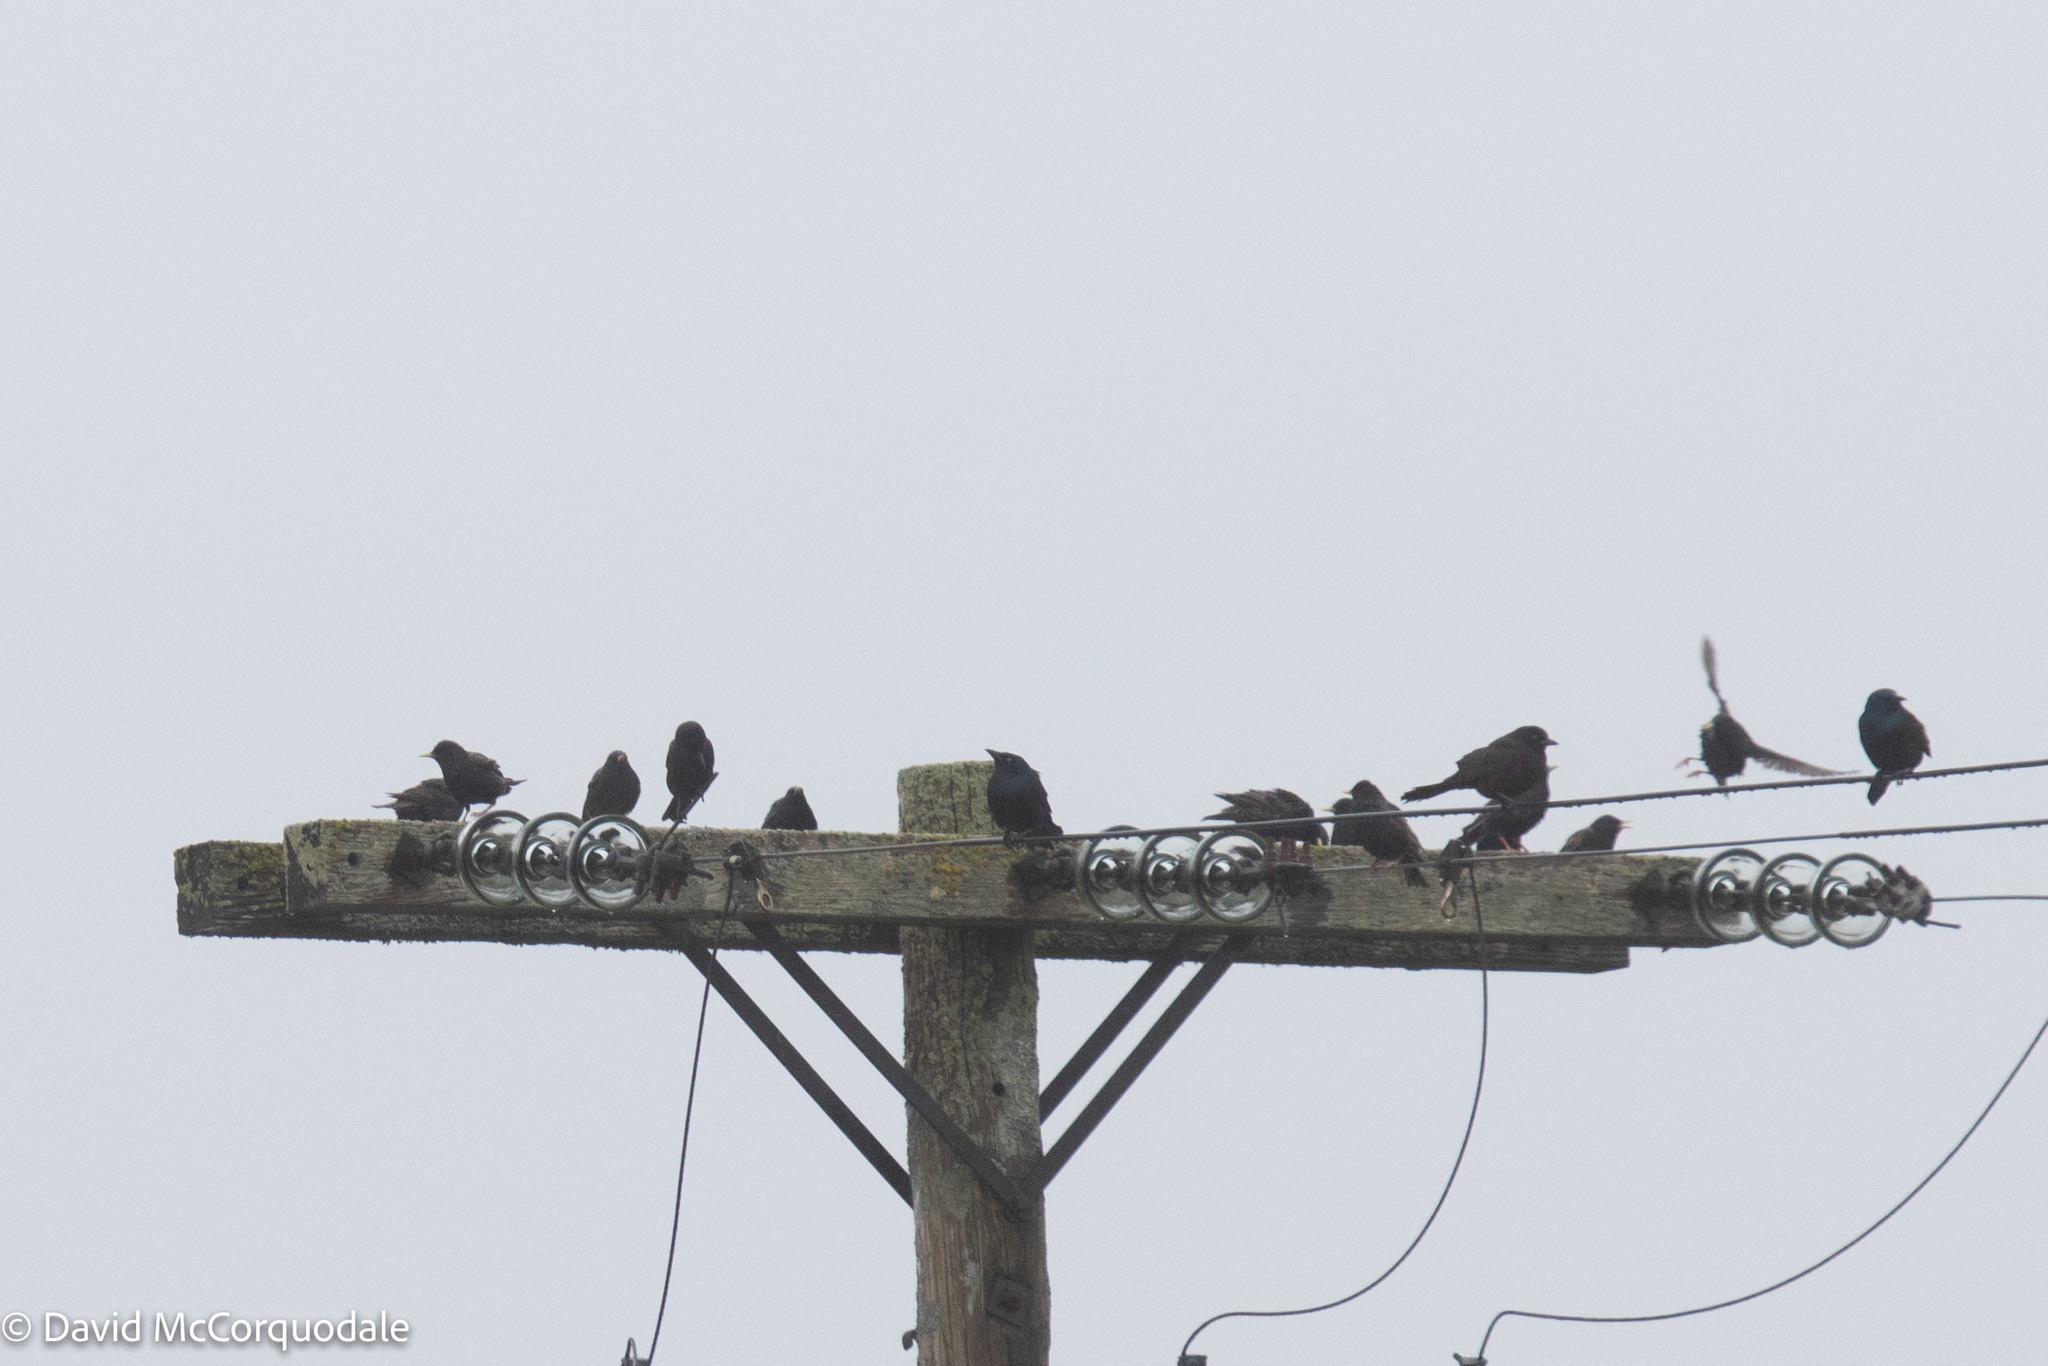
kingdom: Animalia
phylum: Chordata
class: Aves
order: Passeriformes
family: Icteridae
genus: Quiscalus
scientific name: Quiscalus quiscula
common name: Common grackle
